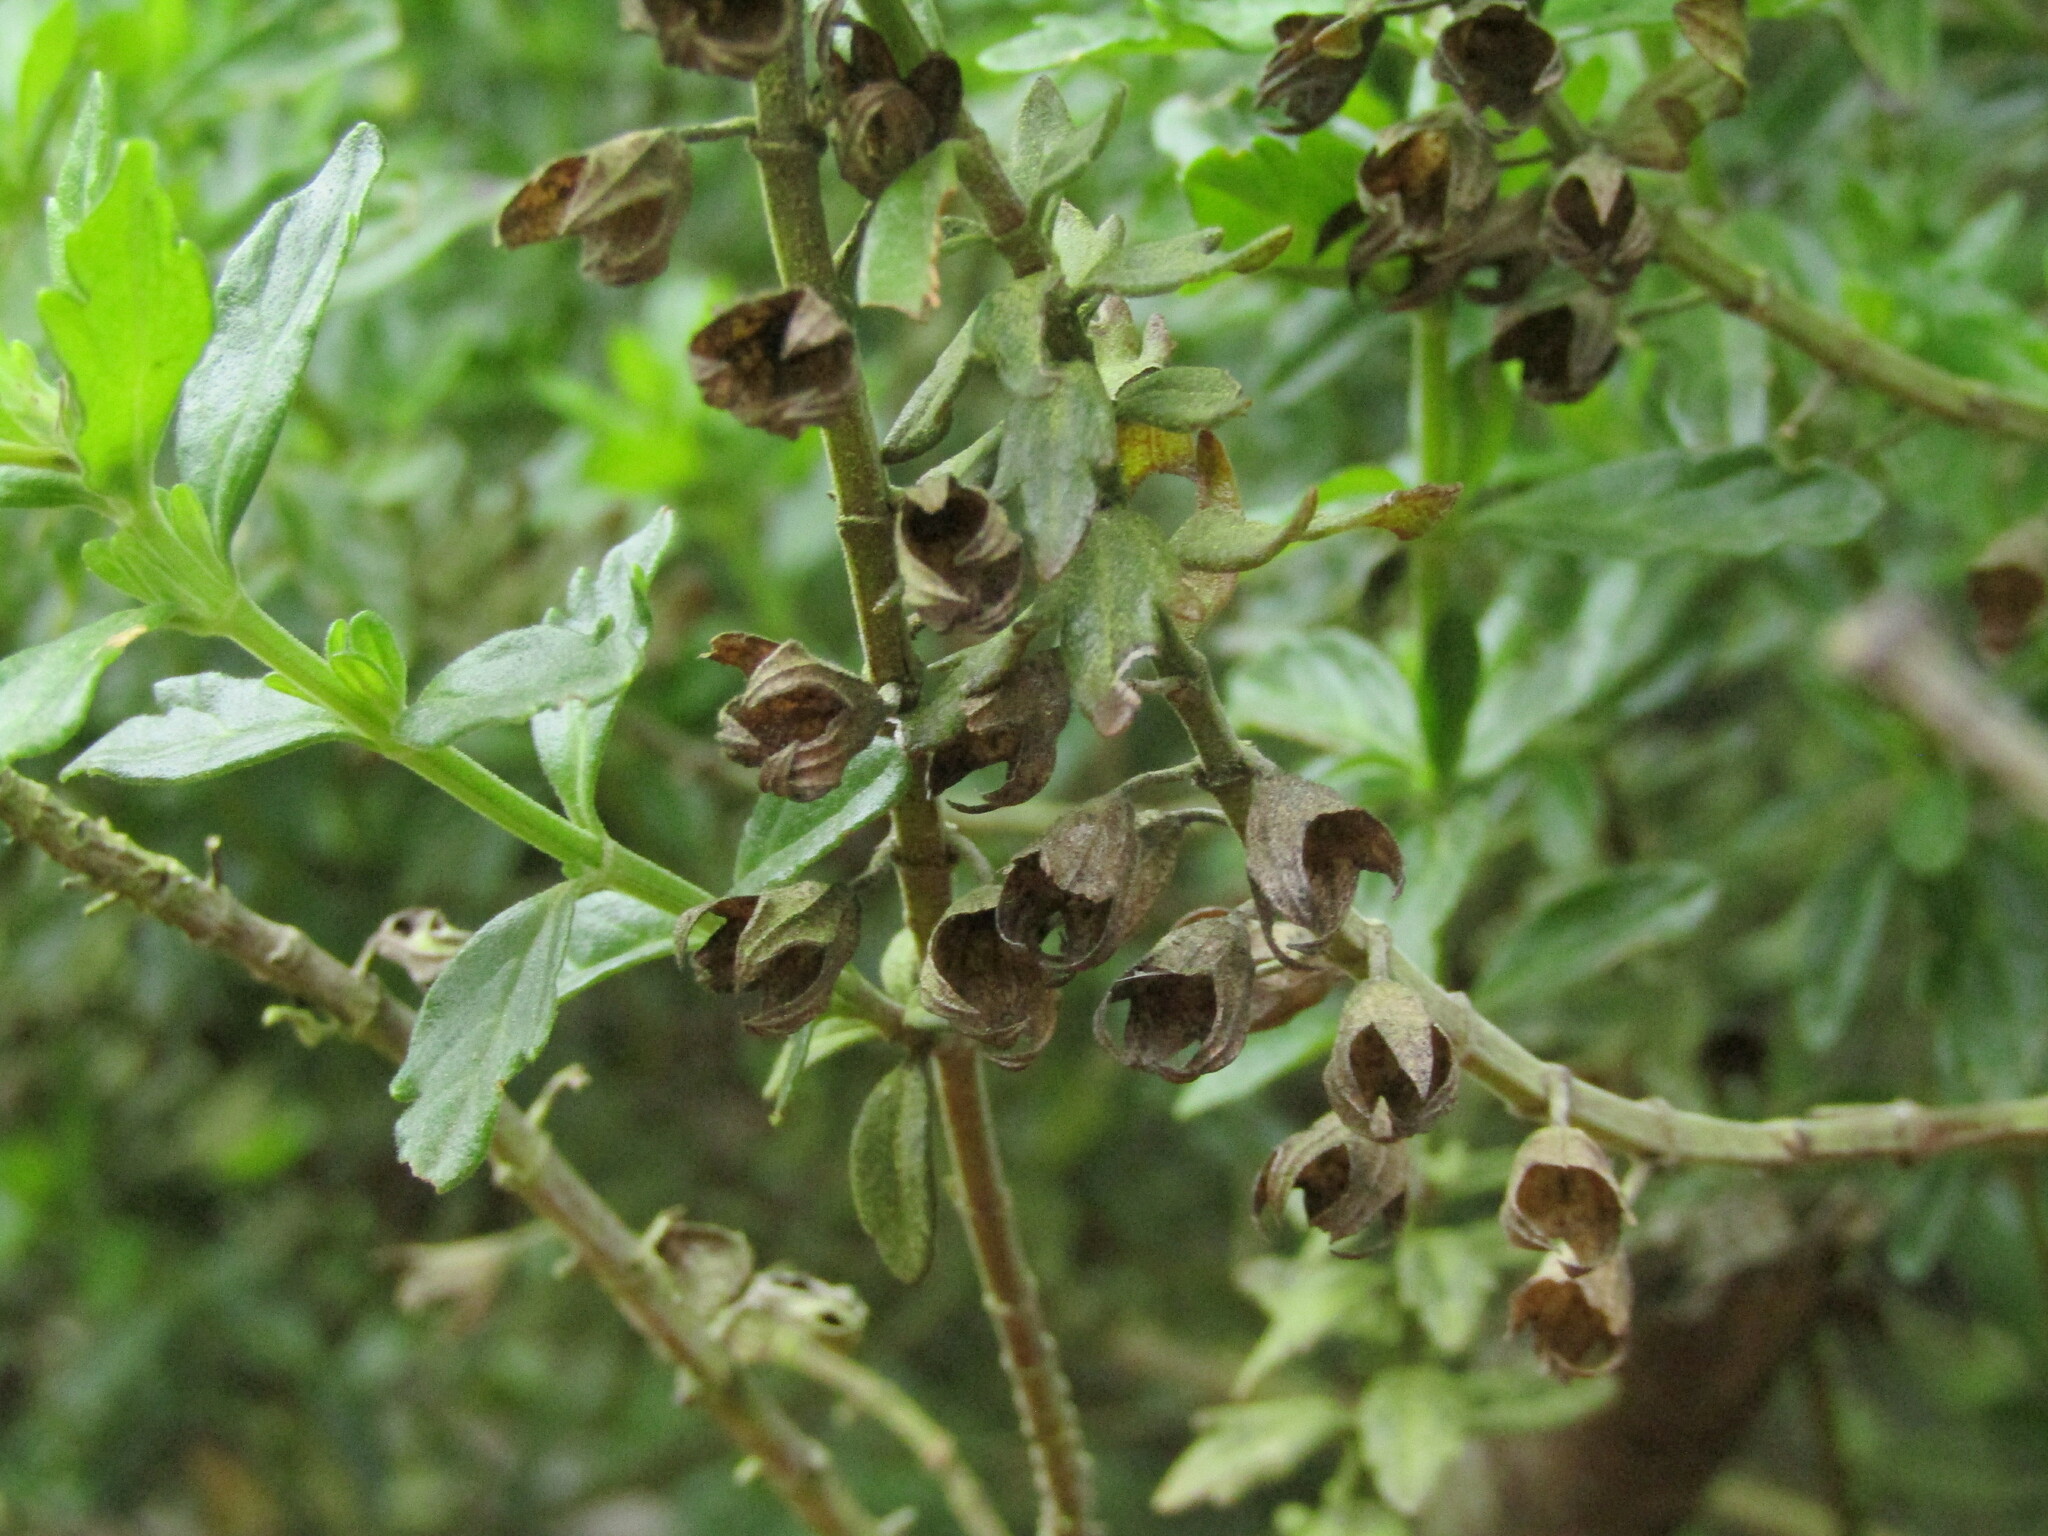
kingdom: Plantae
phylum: Tracheophyta
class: Magnoliopsida
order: Lamiales
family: Lamiaceae
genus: Teucrium
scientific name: Teucrium bicolor
